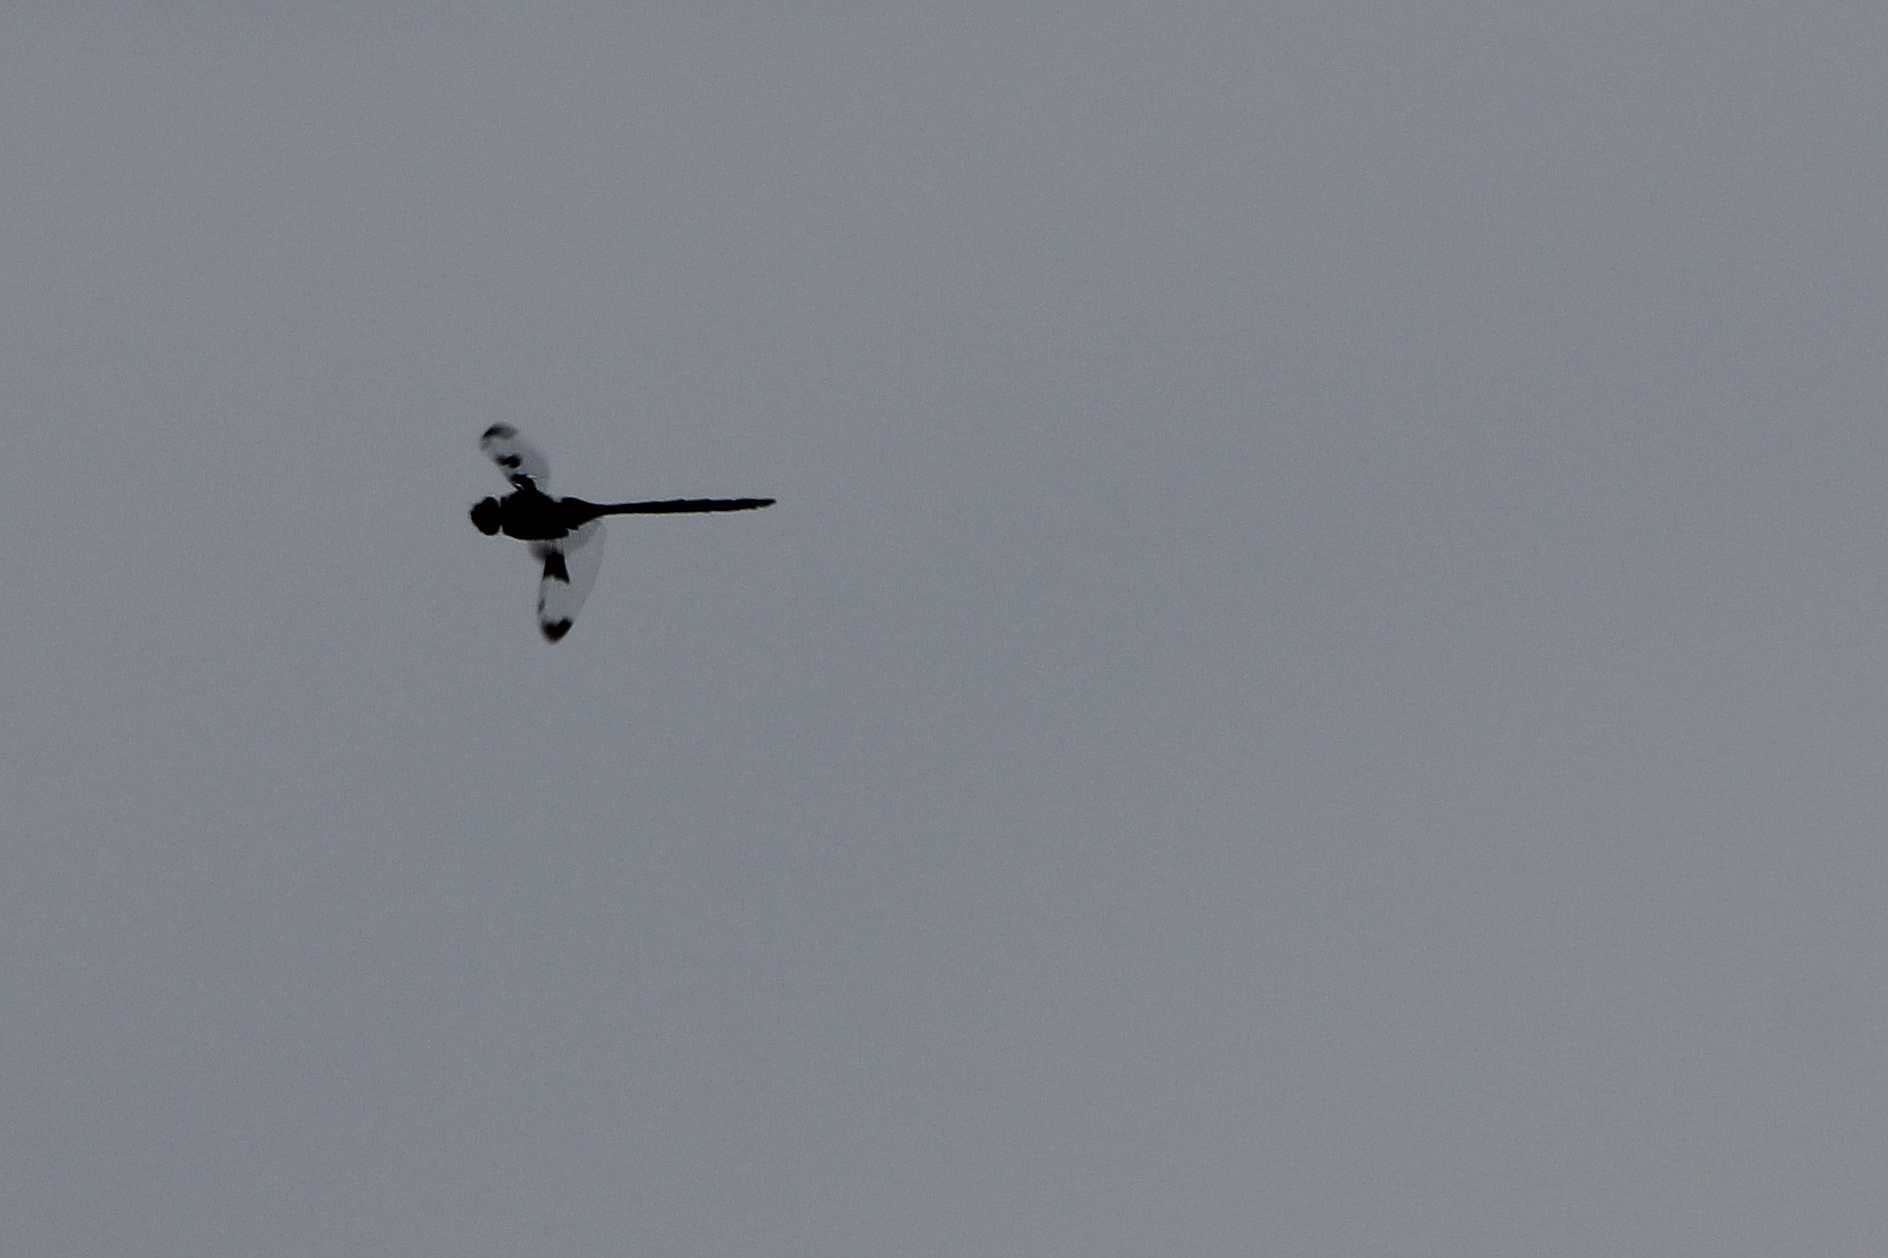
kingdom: Animalia
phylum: Arthropoda
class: Insecta
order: Odonata
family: Corduliidae
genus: Epitheca
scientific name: Epitheca princeps
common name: Prince baskettail
